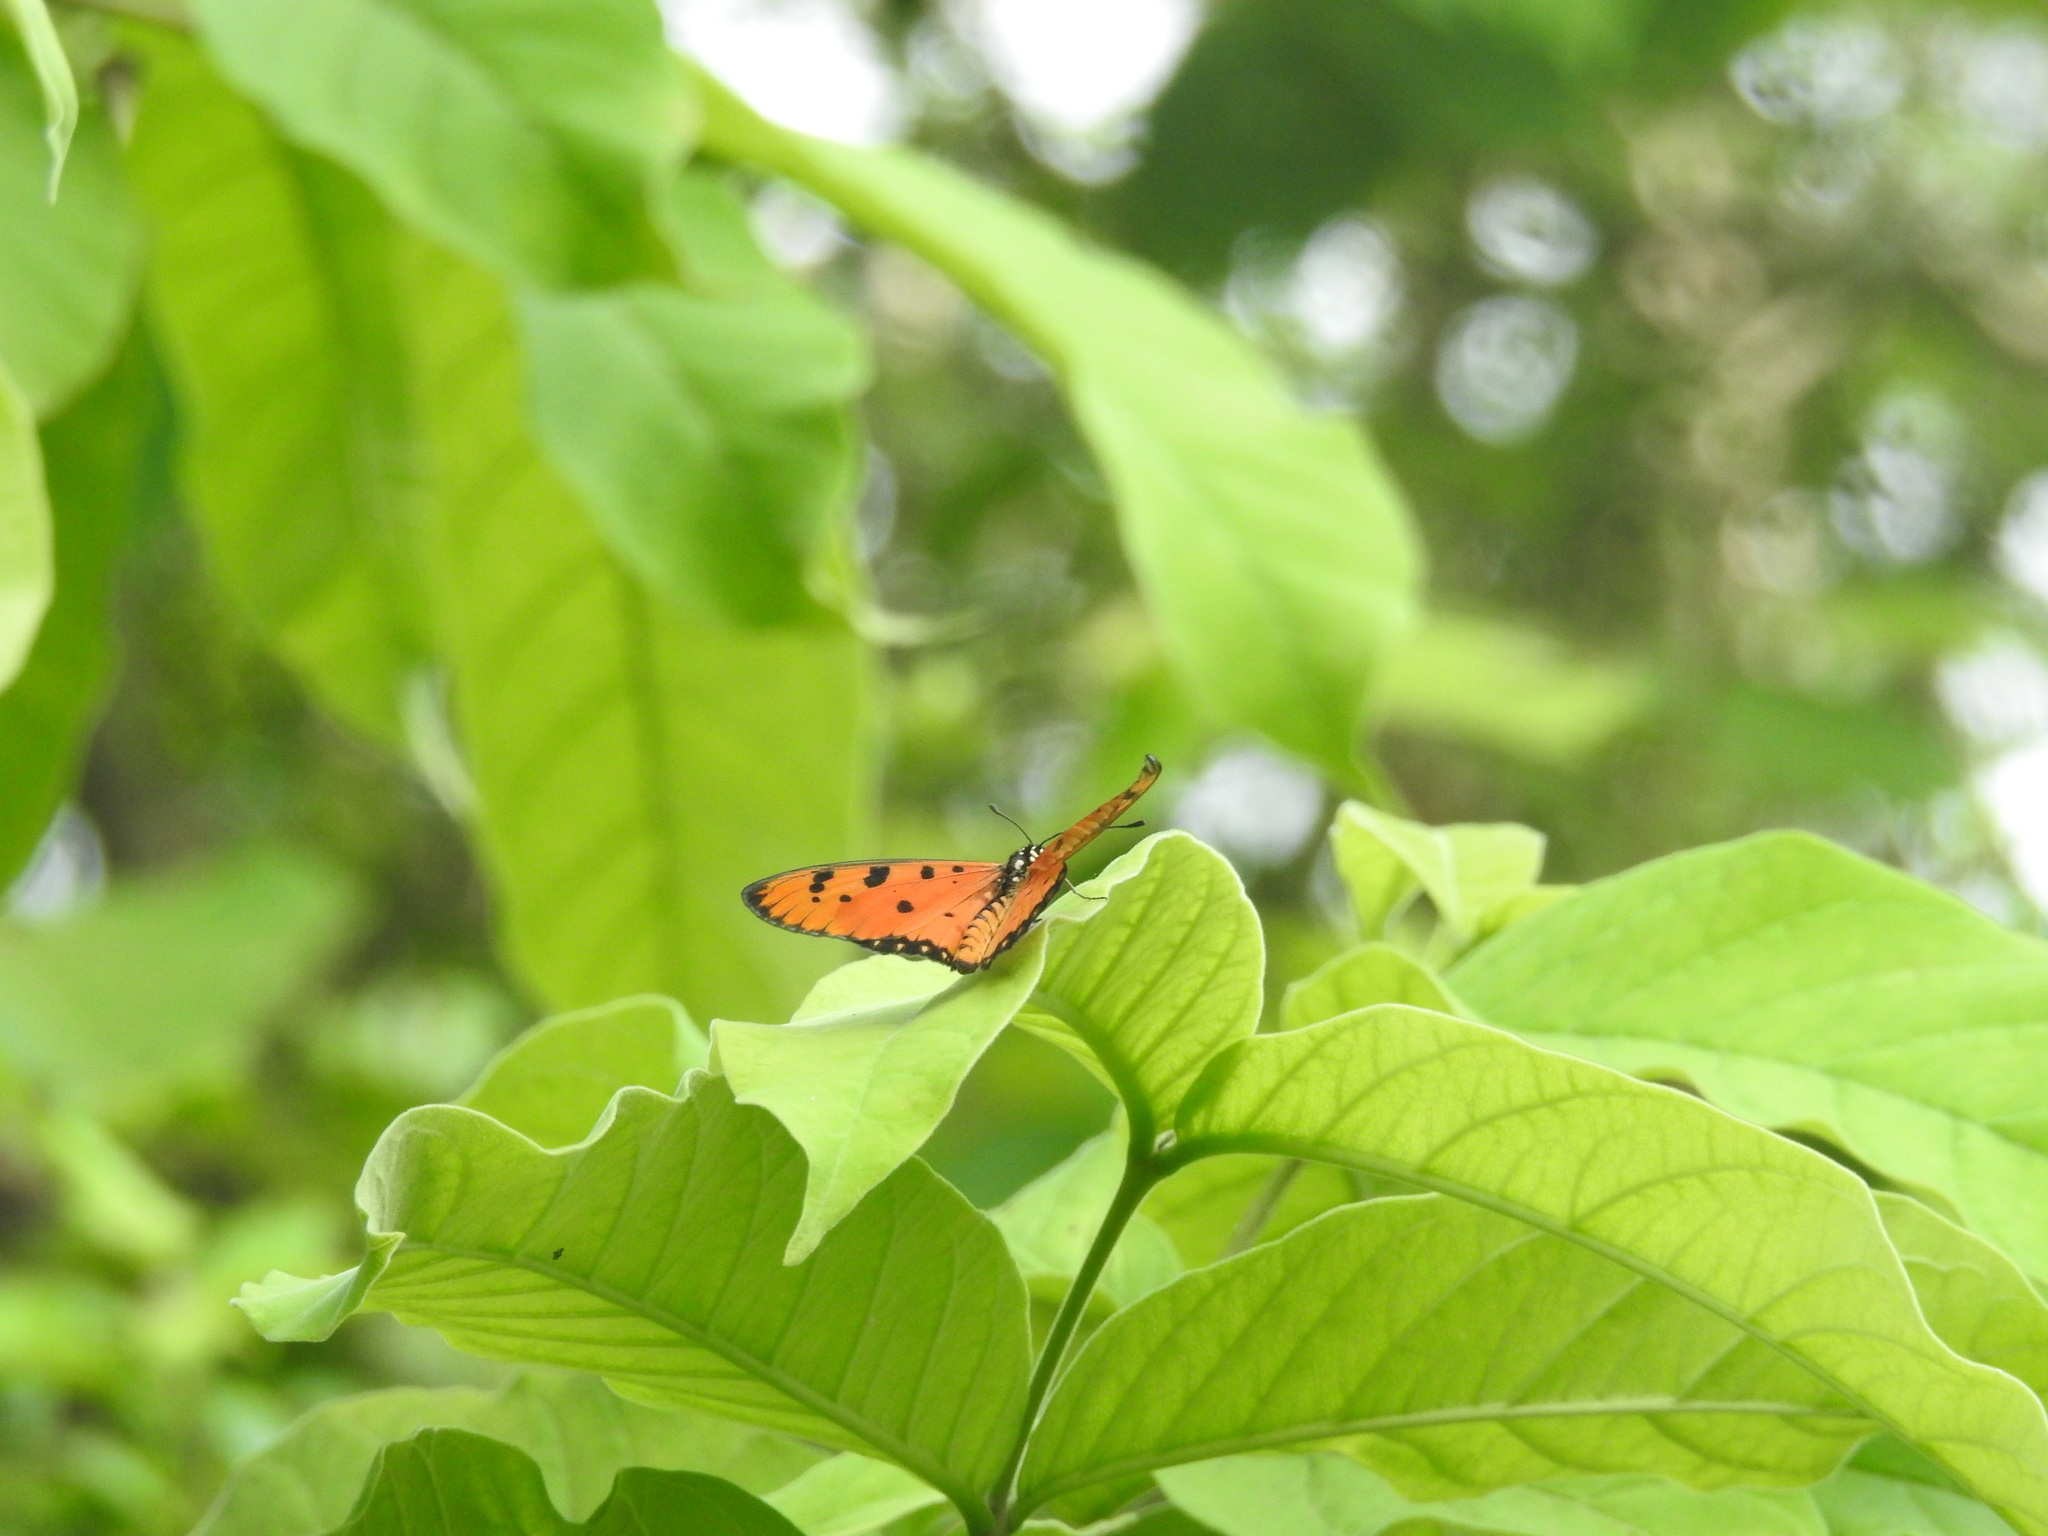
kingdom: Animalia
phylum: Arthropoda
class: Insecta
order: Lepidoptera
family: Nymphalidae
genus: Acraea
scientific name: Acraea terpsicore
